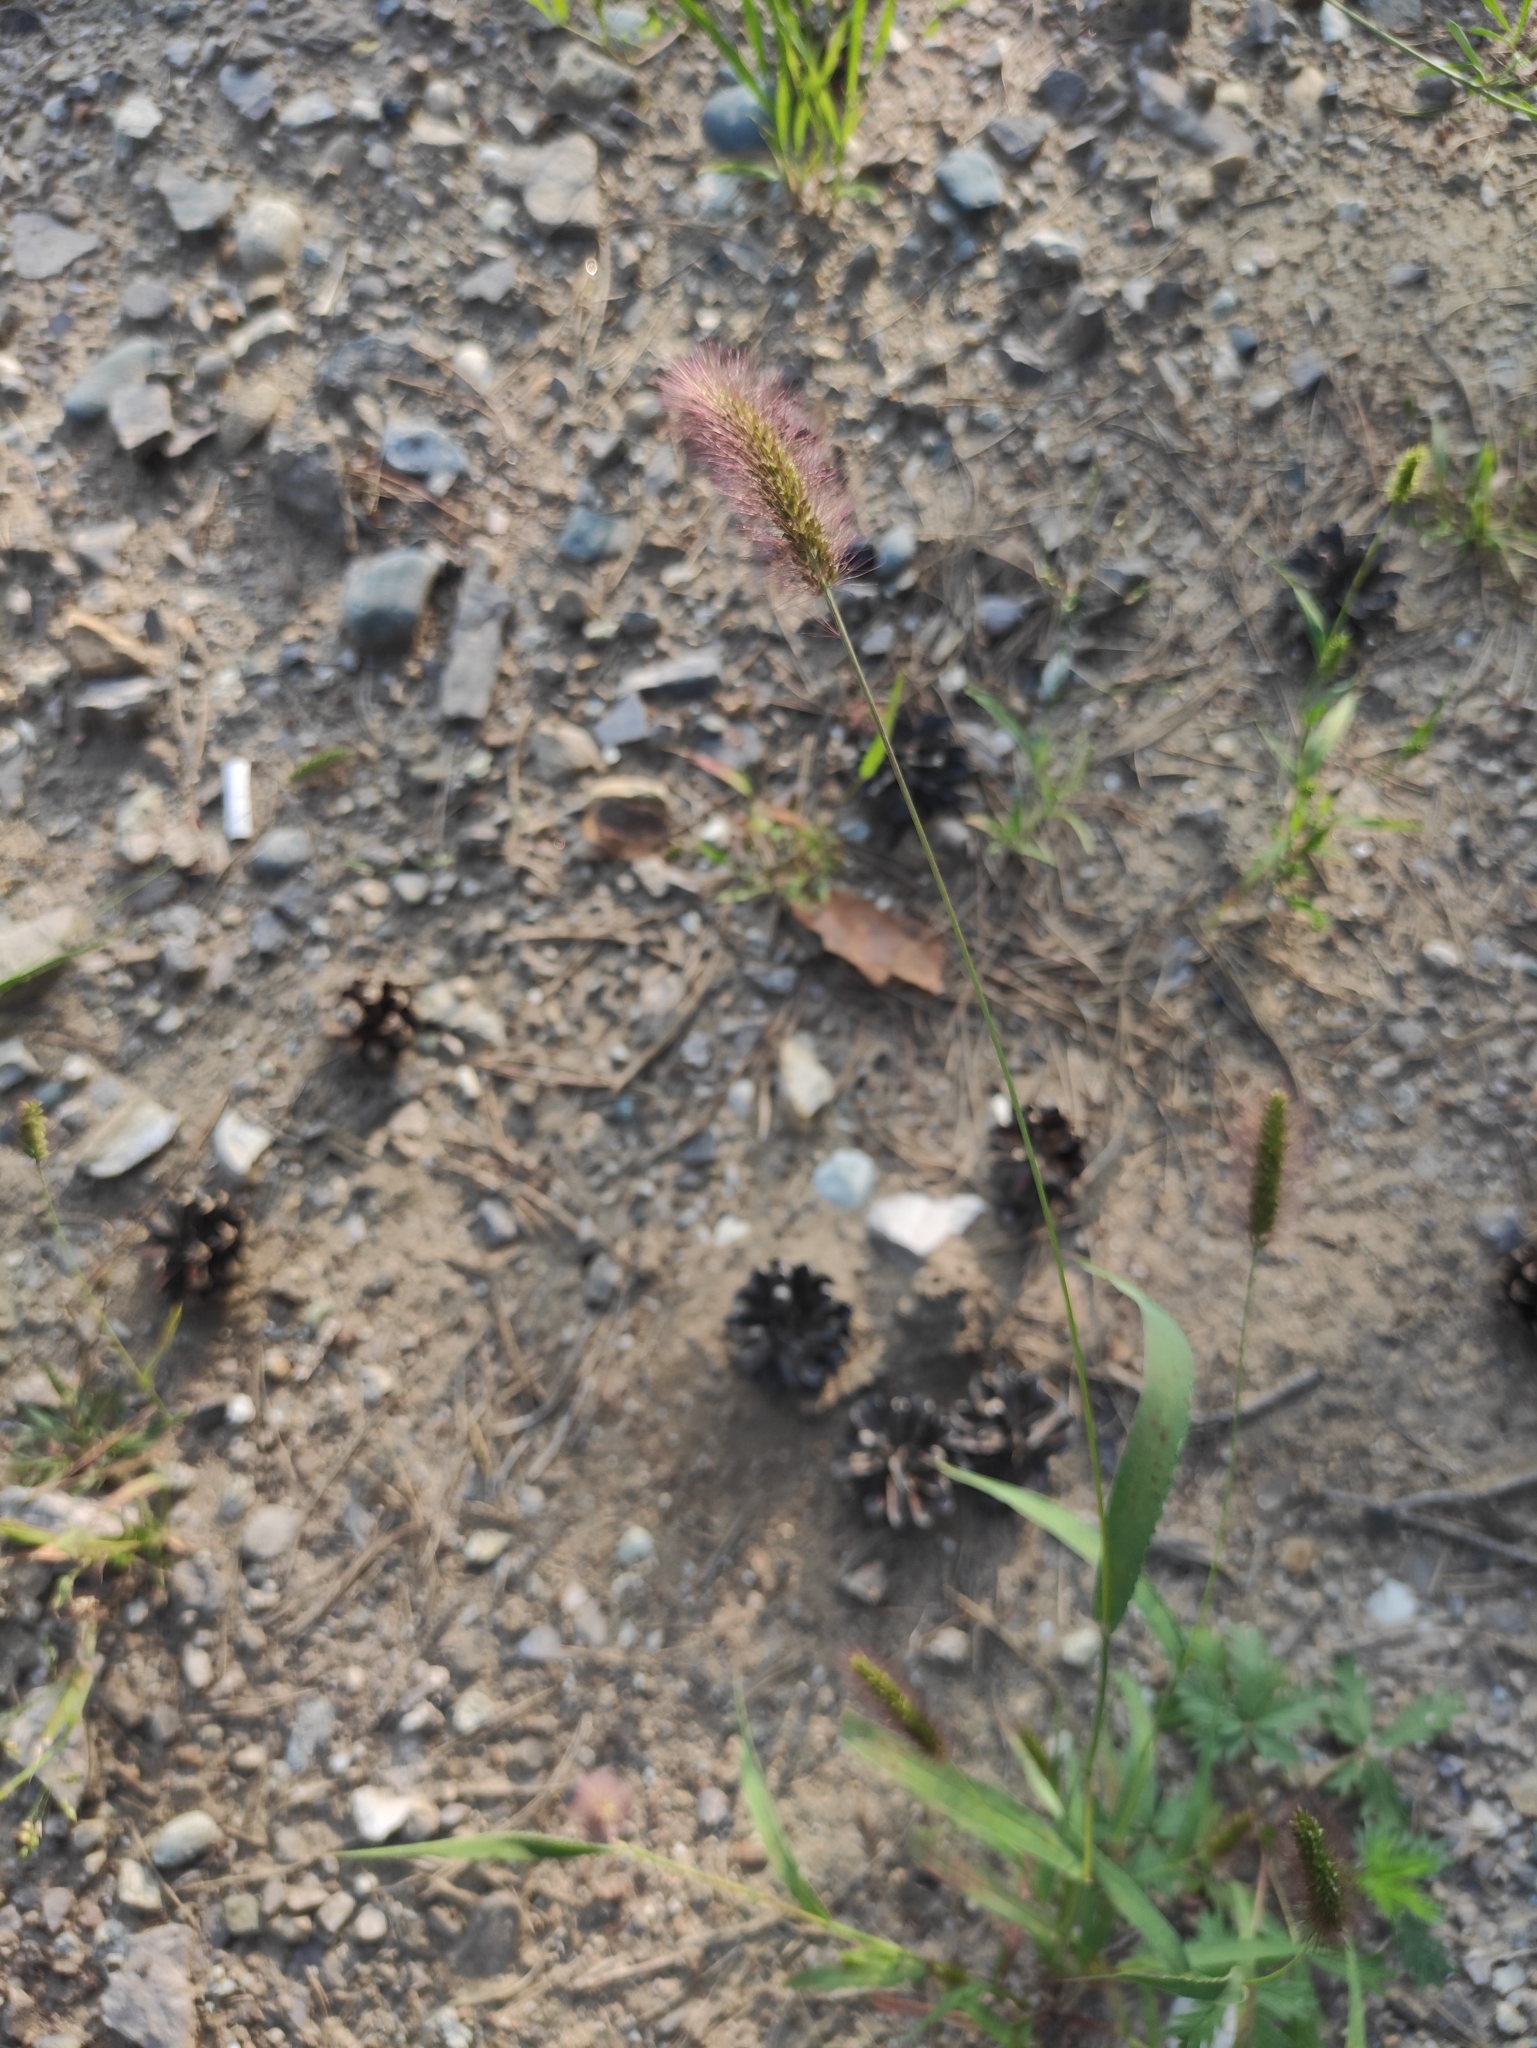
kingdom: Plantae
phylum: Tracheophyta
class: Liliopsida
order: Poales
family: Poaceae
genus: Setaria
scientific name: Setaria viridis
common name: Green bristlegrass
